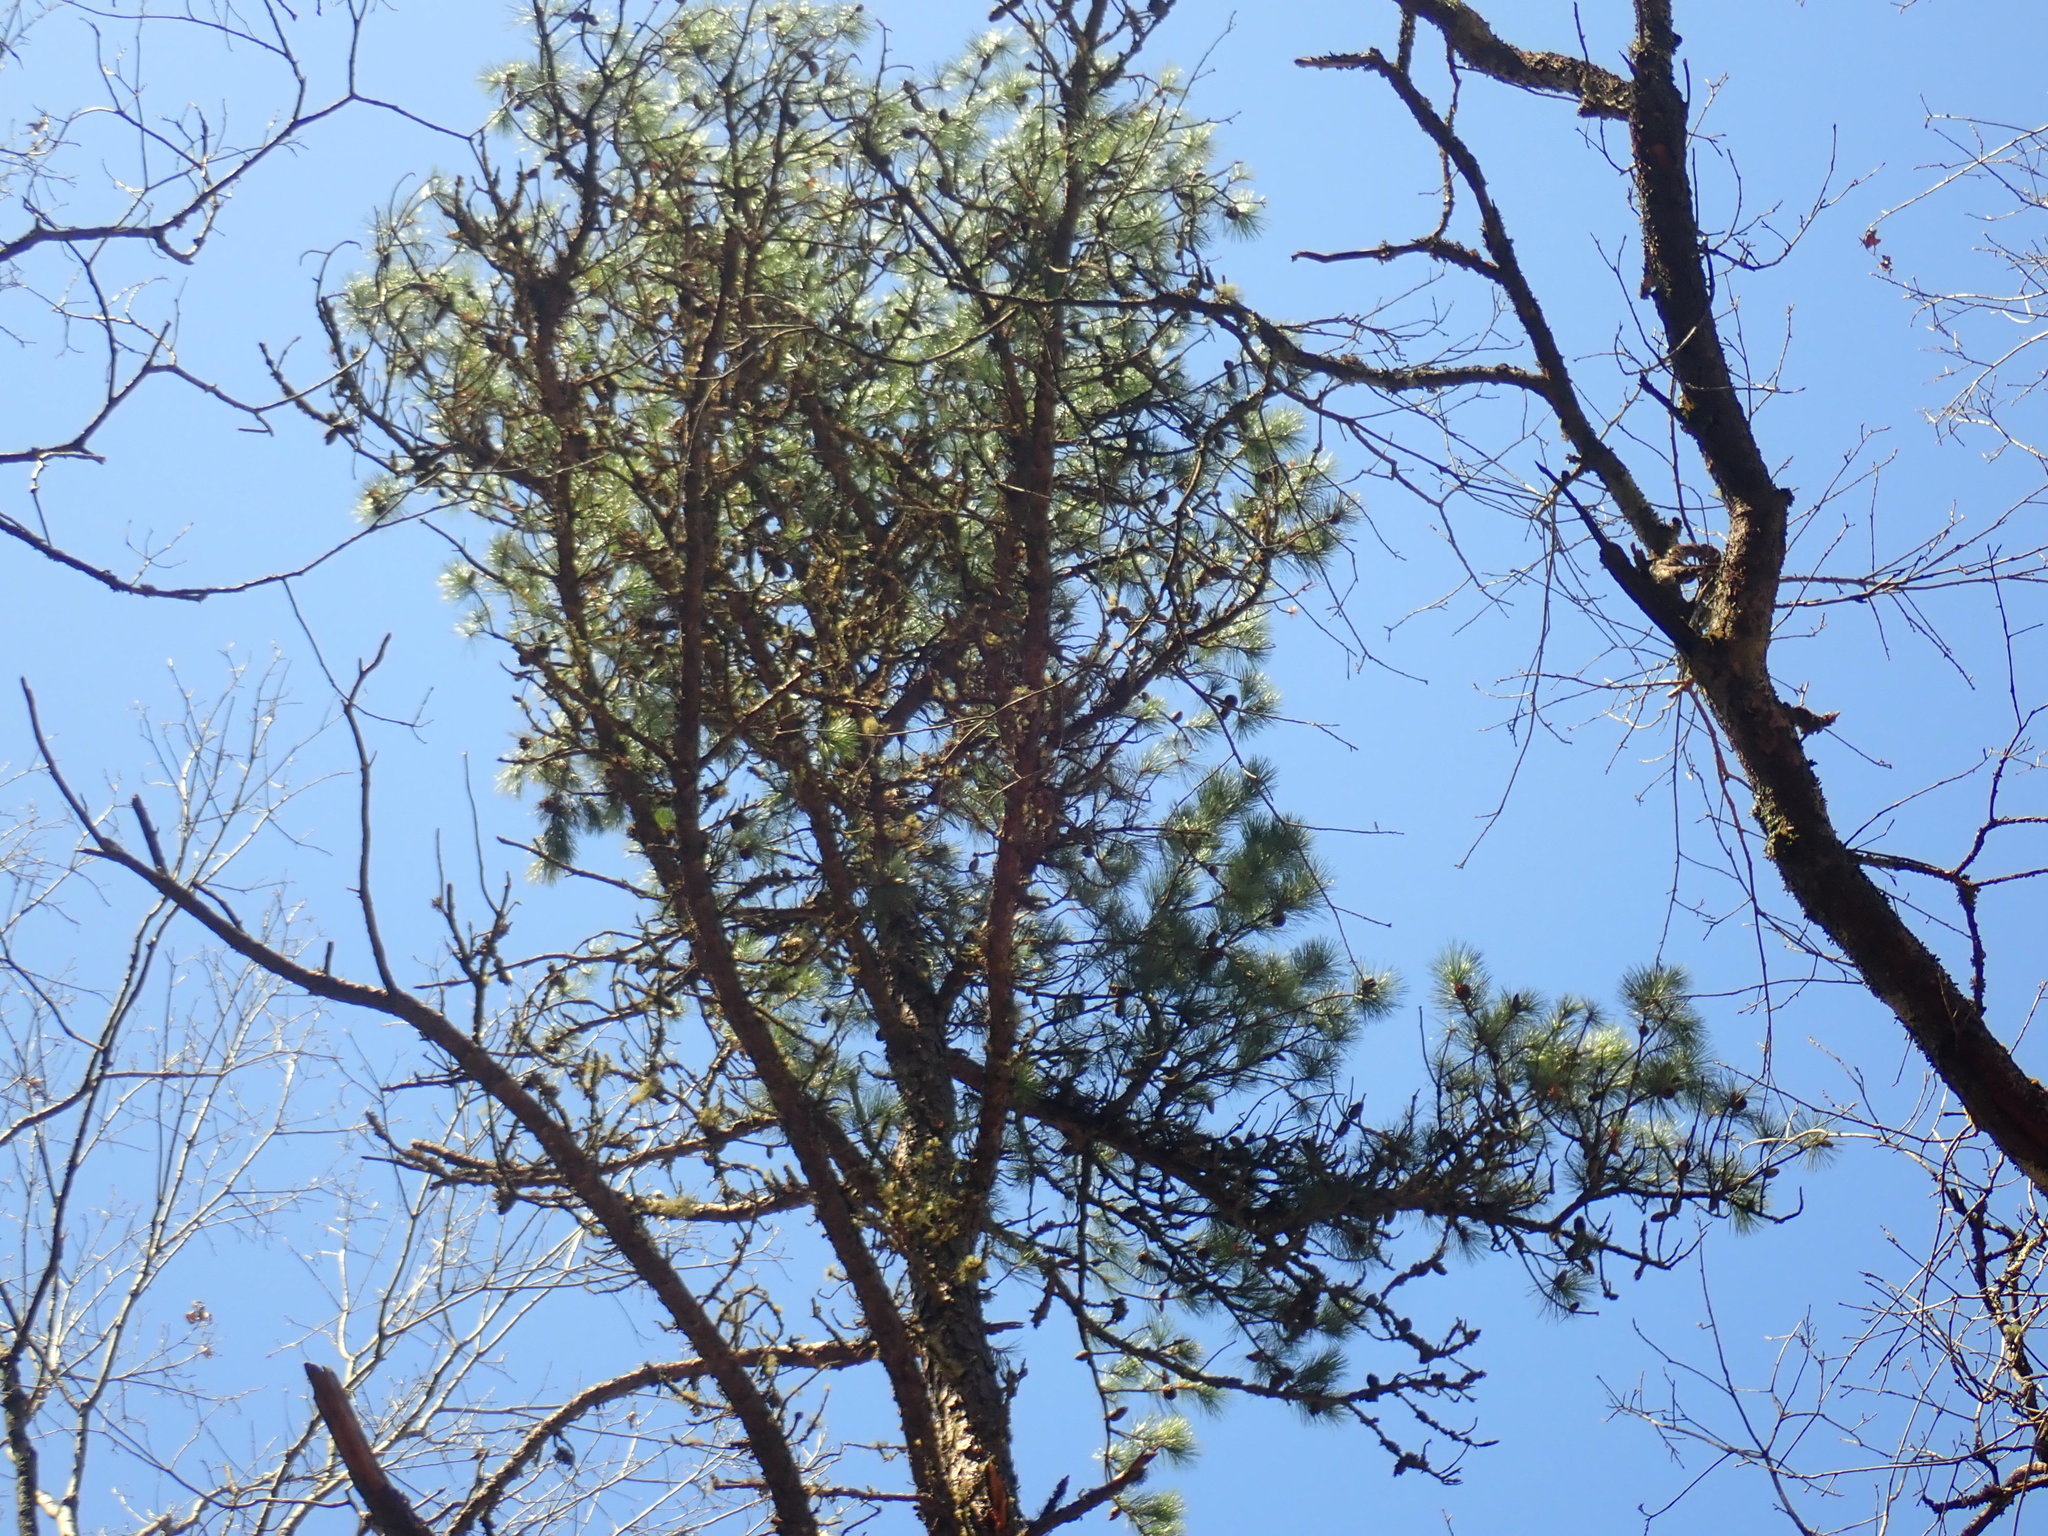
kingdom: Plantae
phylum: Tracheophyta
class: Pinopsida
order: Pinales
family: Pinaceae
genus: Pinus
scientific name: Pinus rigida
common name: Pitch pine
